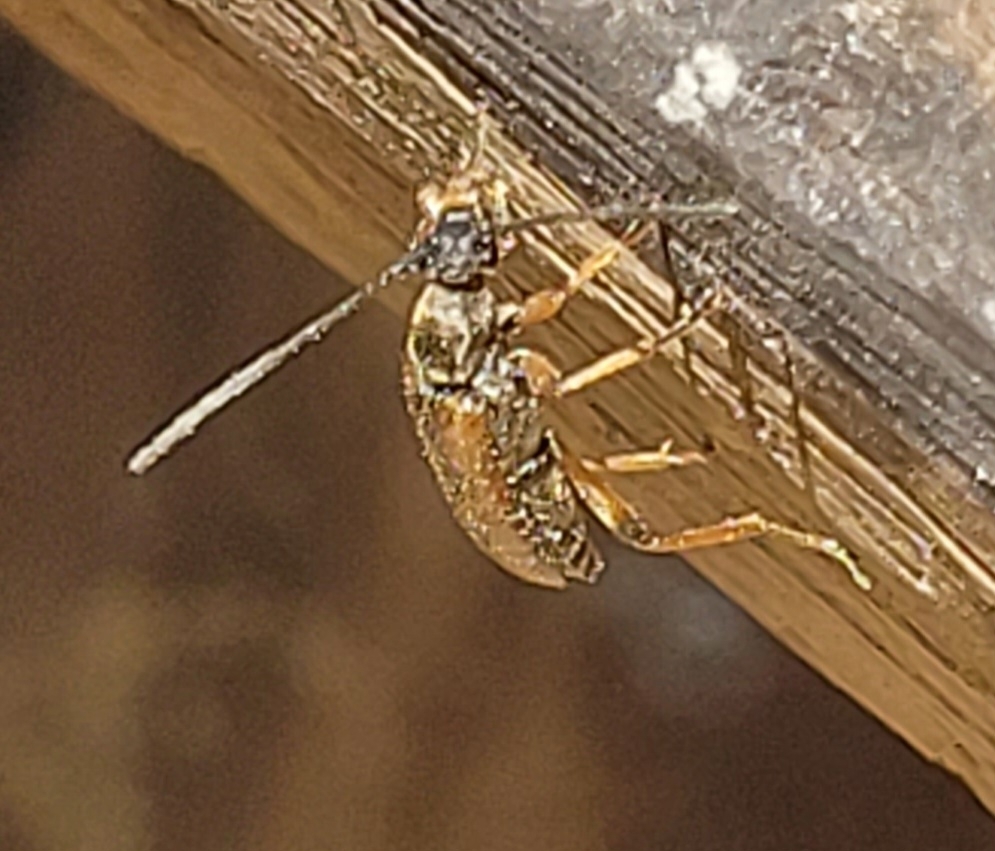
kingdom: Animalia
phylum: Arthropoda
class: Insecta
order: Coleoptera
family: Cerambycidae
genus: Alosterna
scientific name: Alosterna tabacicolor
